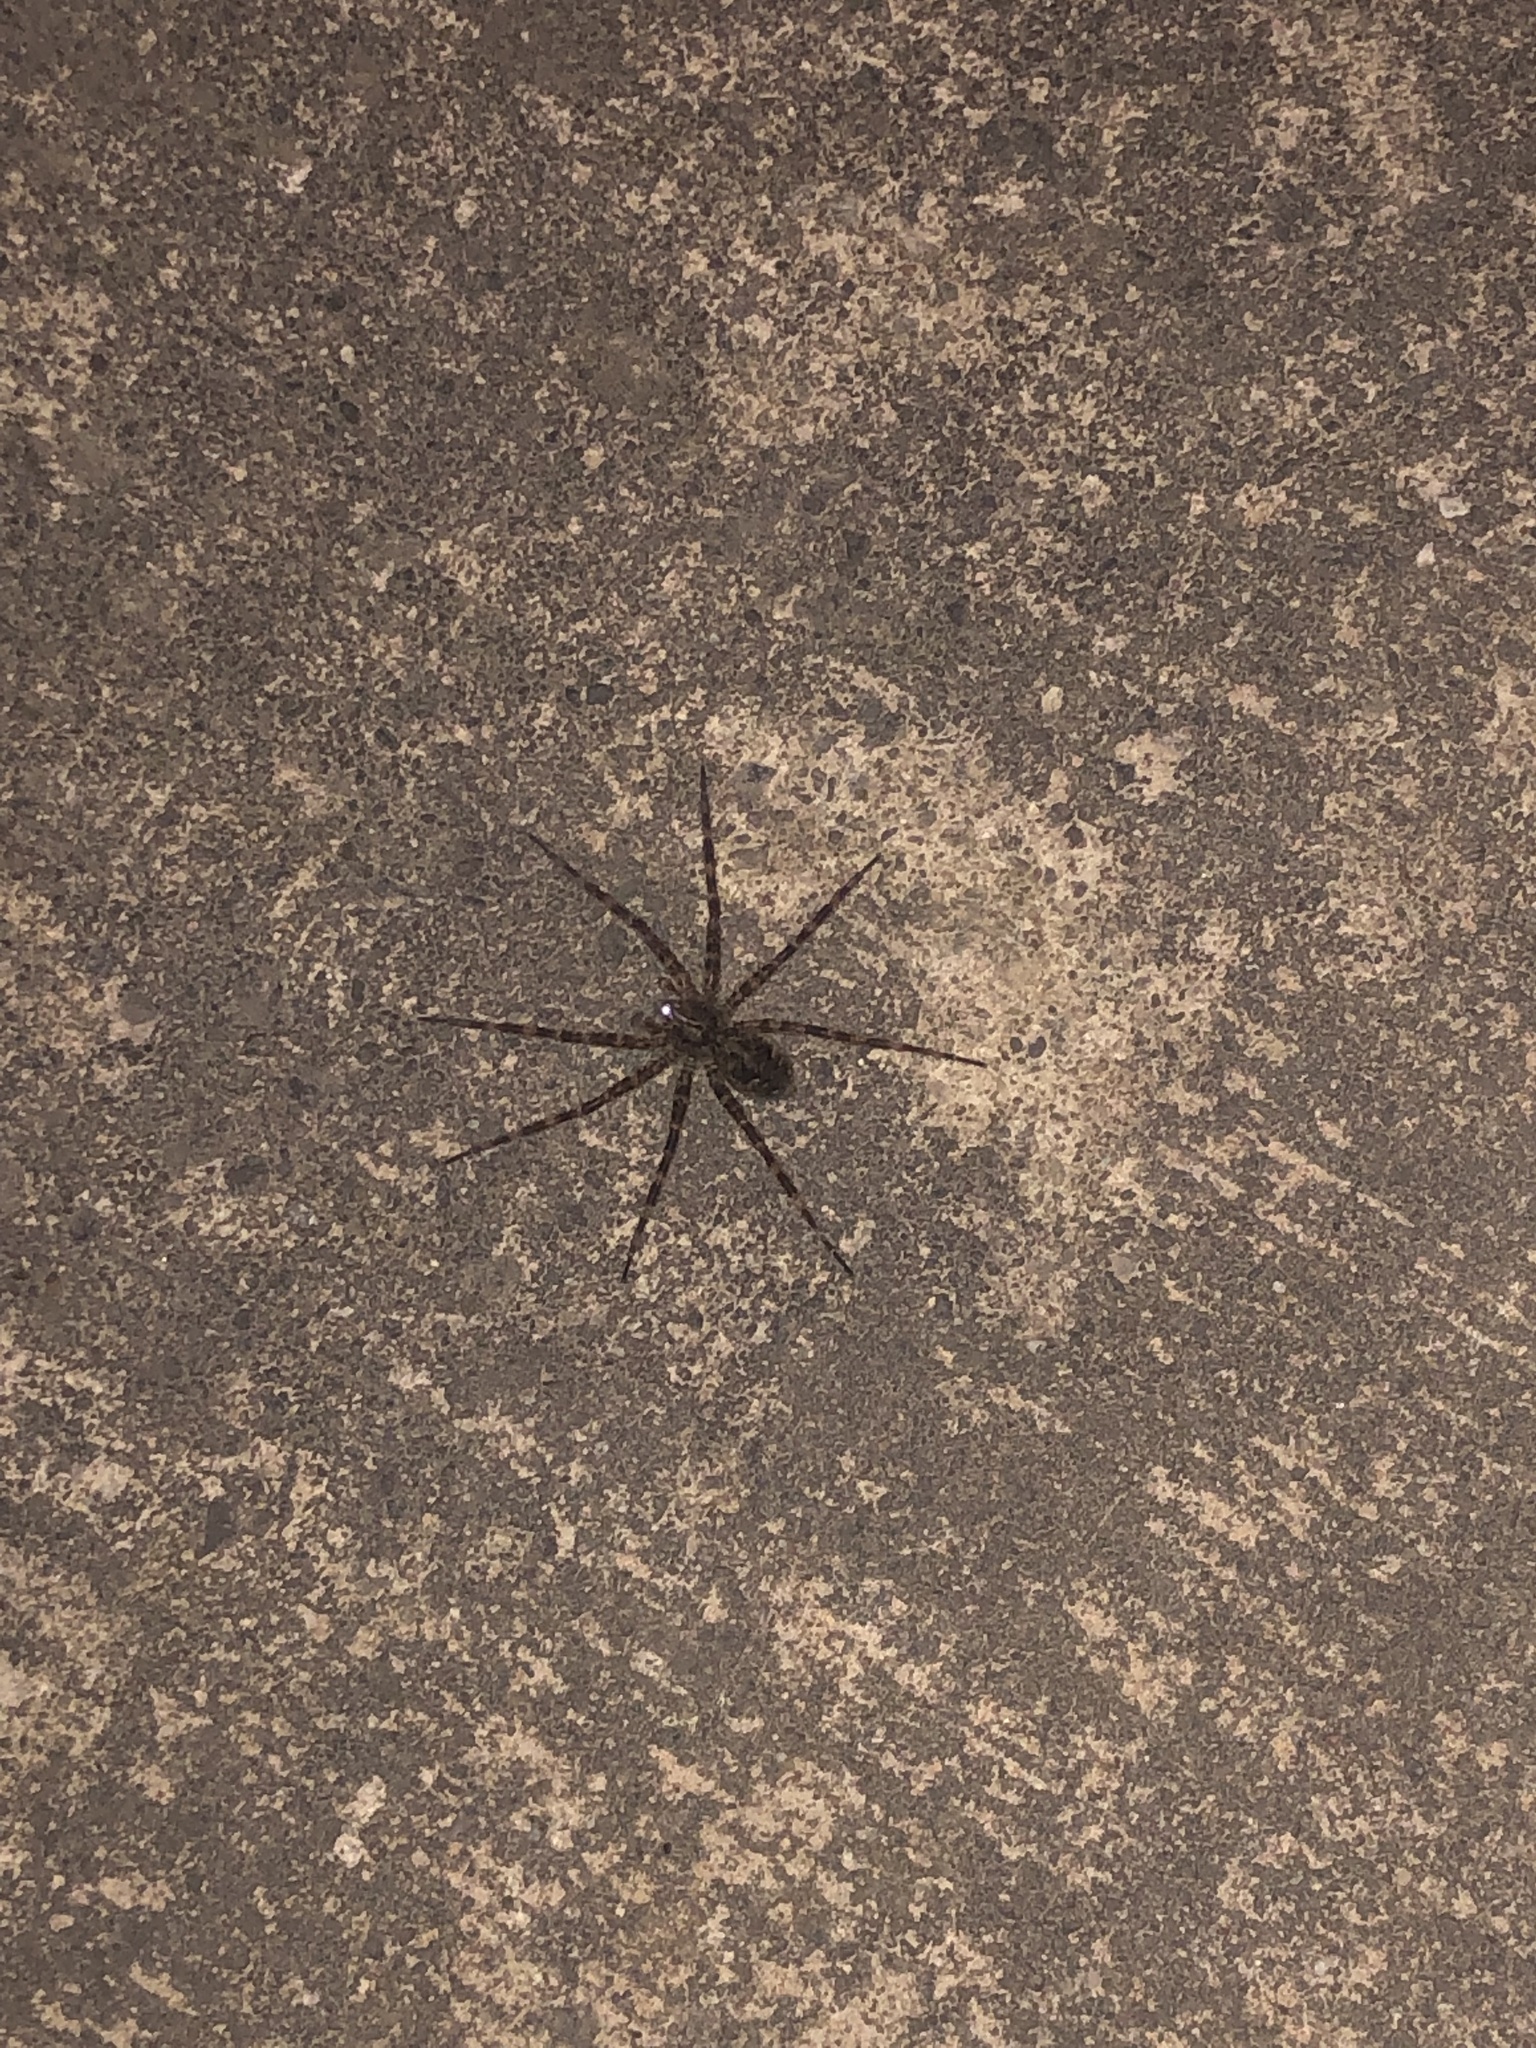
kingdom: Animalia
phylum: Arthropoda
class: Arachnida
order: Araneae
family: Pisauridae
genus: Dolomedes
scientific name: Dolomedes tenebrosus
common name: Dark fishing spider
